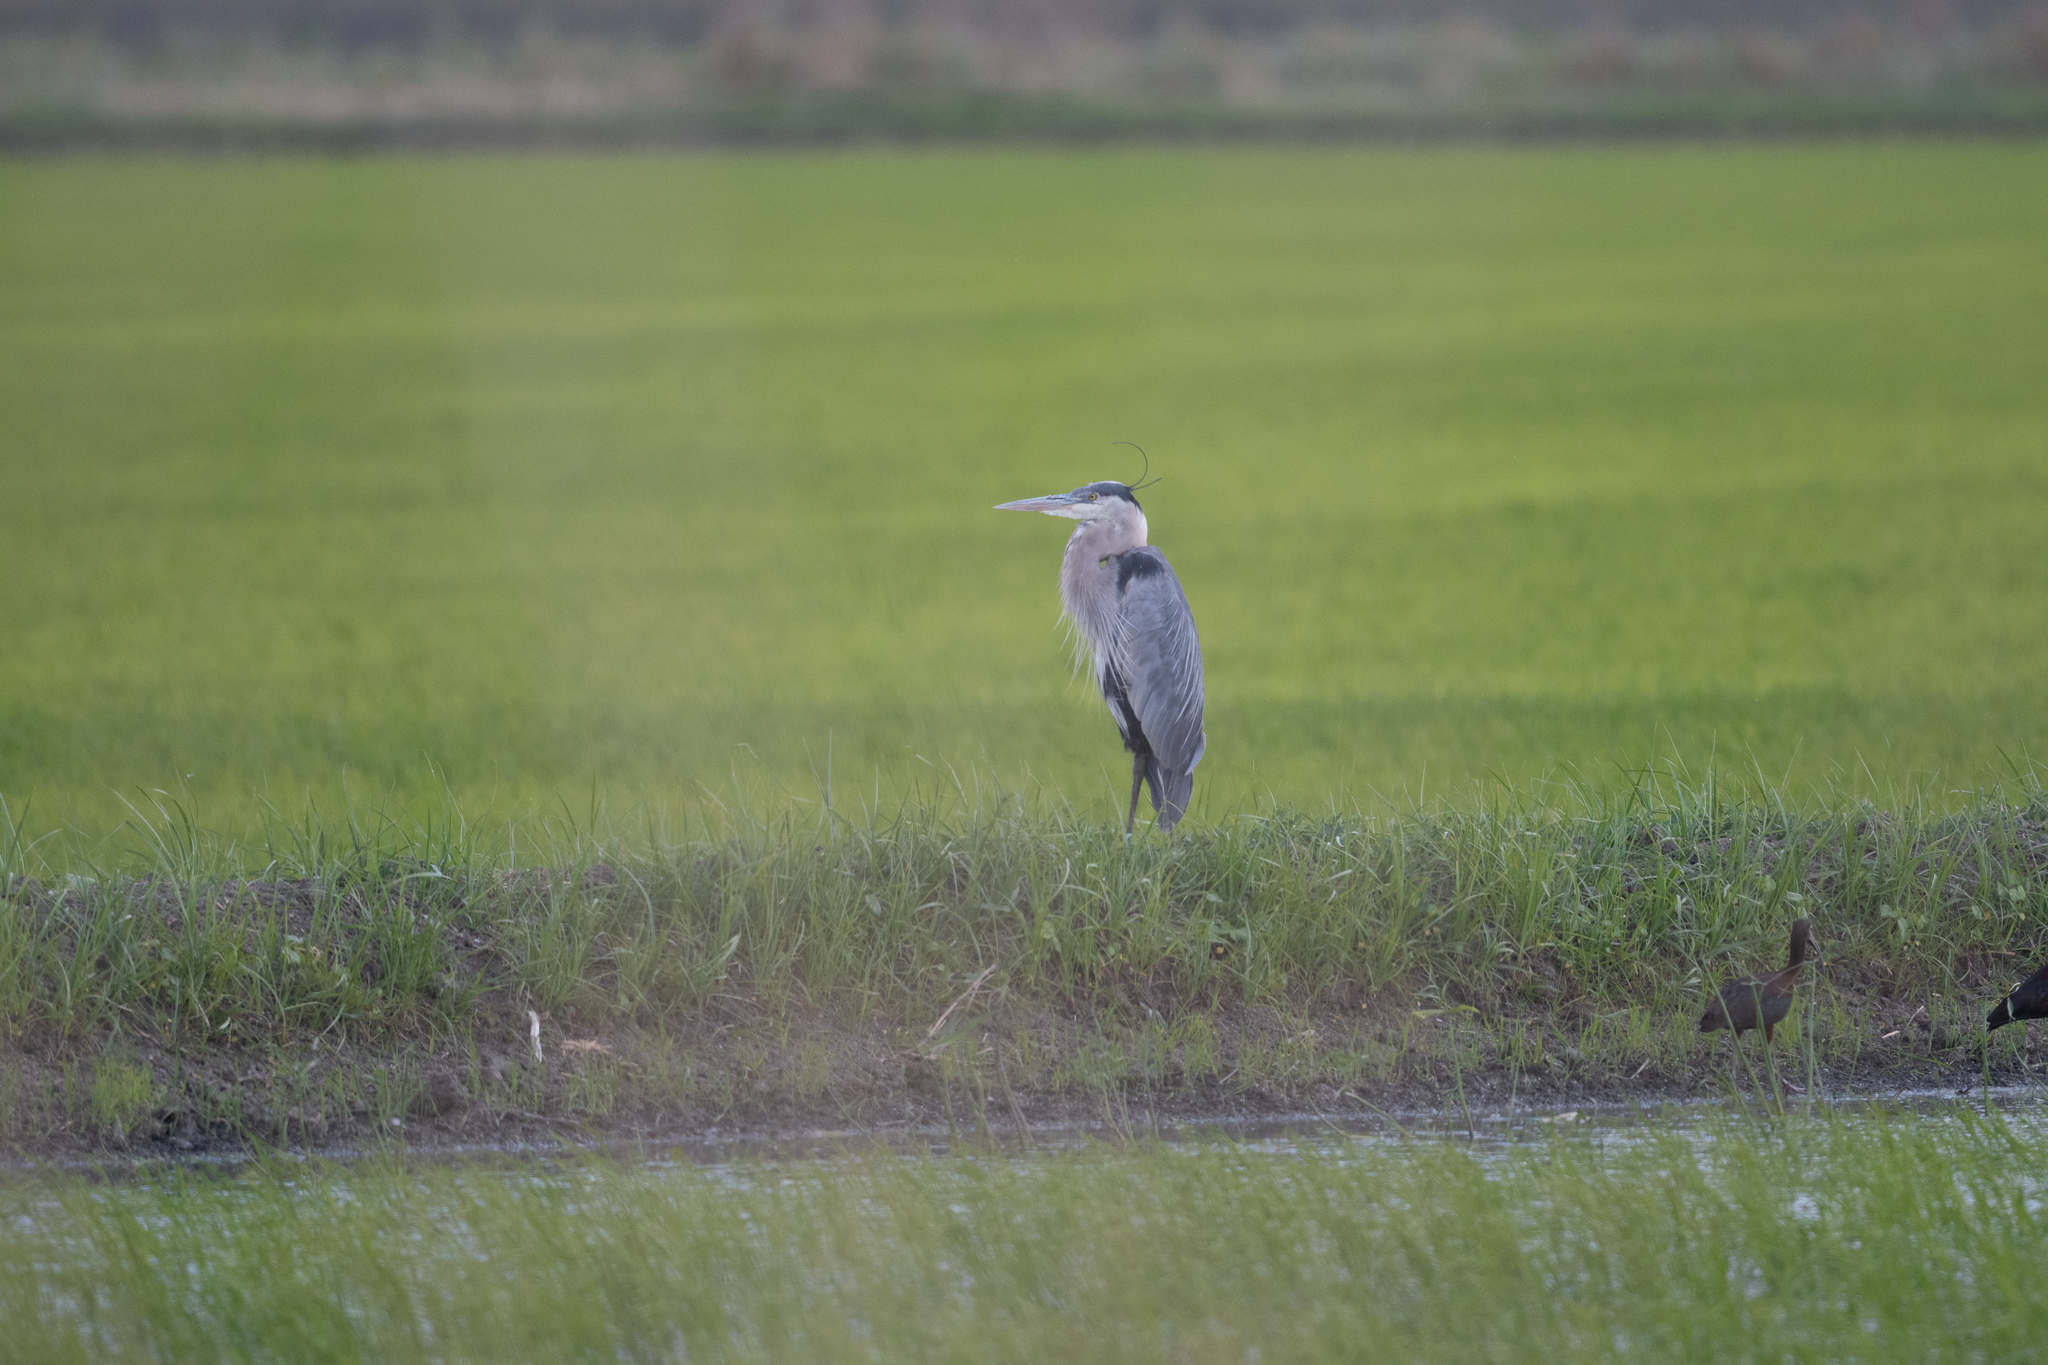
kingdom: Animalia
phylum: Chordata
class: Aves
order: Pelecaniformes
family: Ardeidae
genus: Ardea
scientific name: Ardea herodias
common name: Great blue heron
